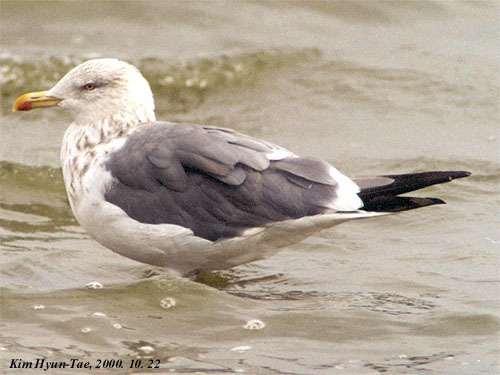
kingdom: Animalia
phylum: Chordata
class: Aves
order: Charadriiformes
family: Laridae
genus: Larus
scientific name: Larus fuscus
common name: Lesser black-backed gull
